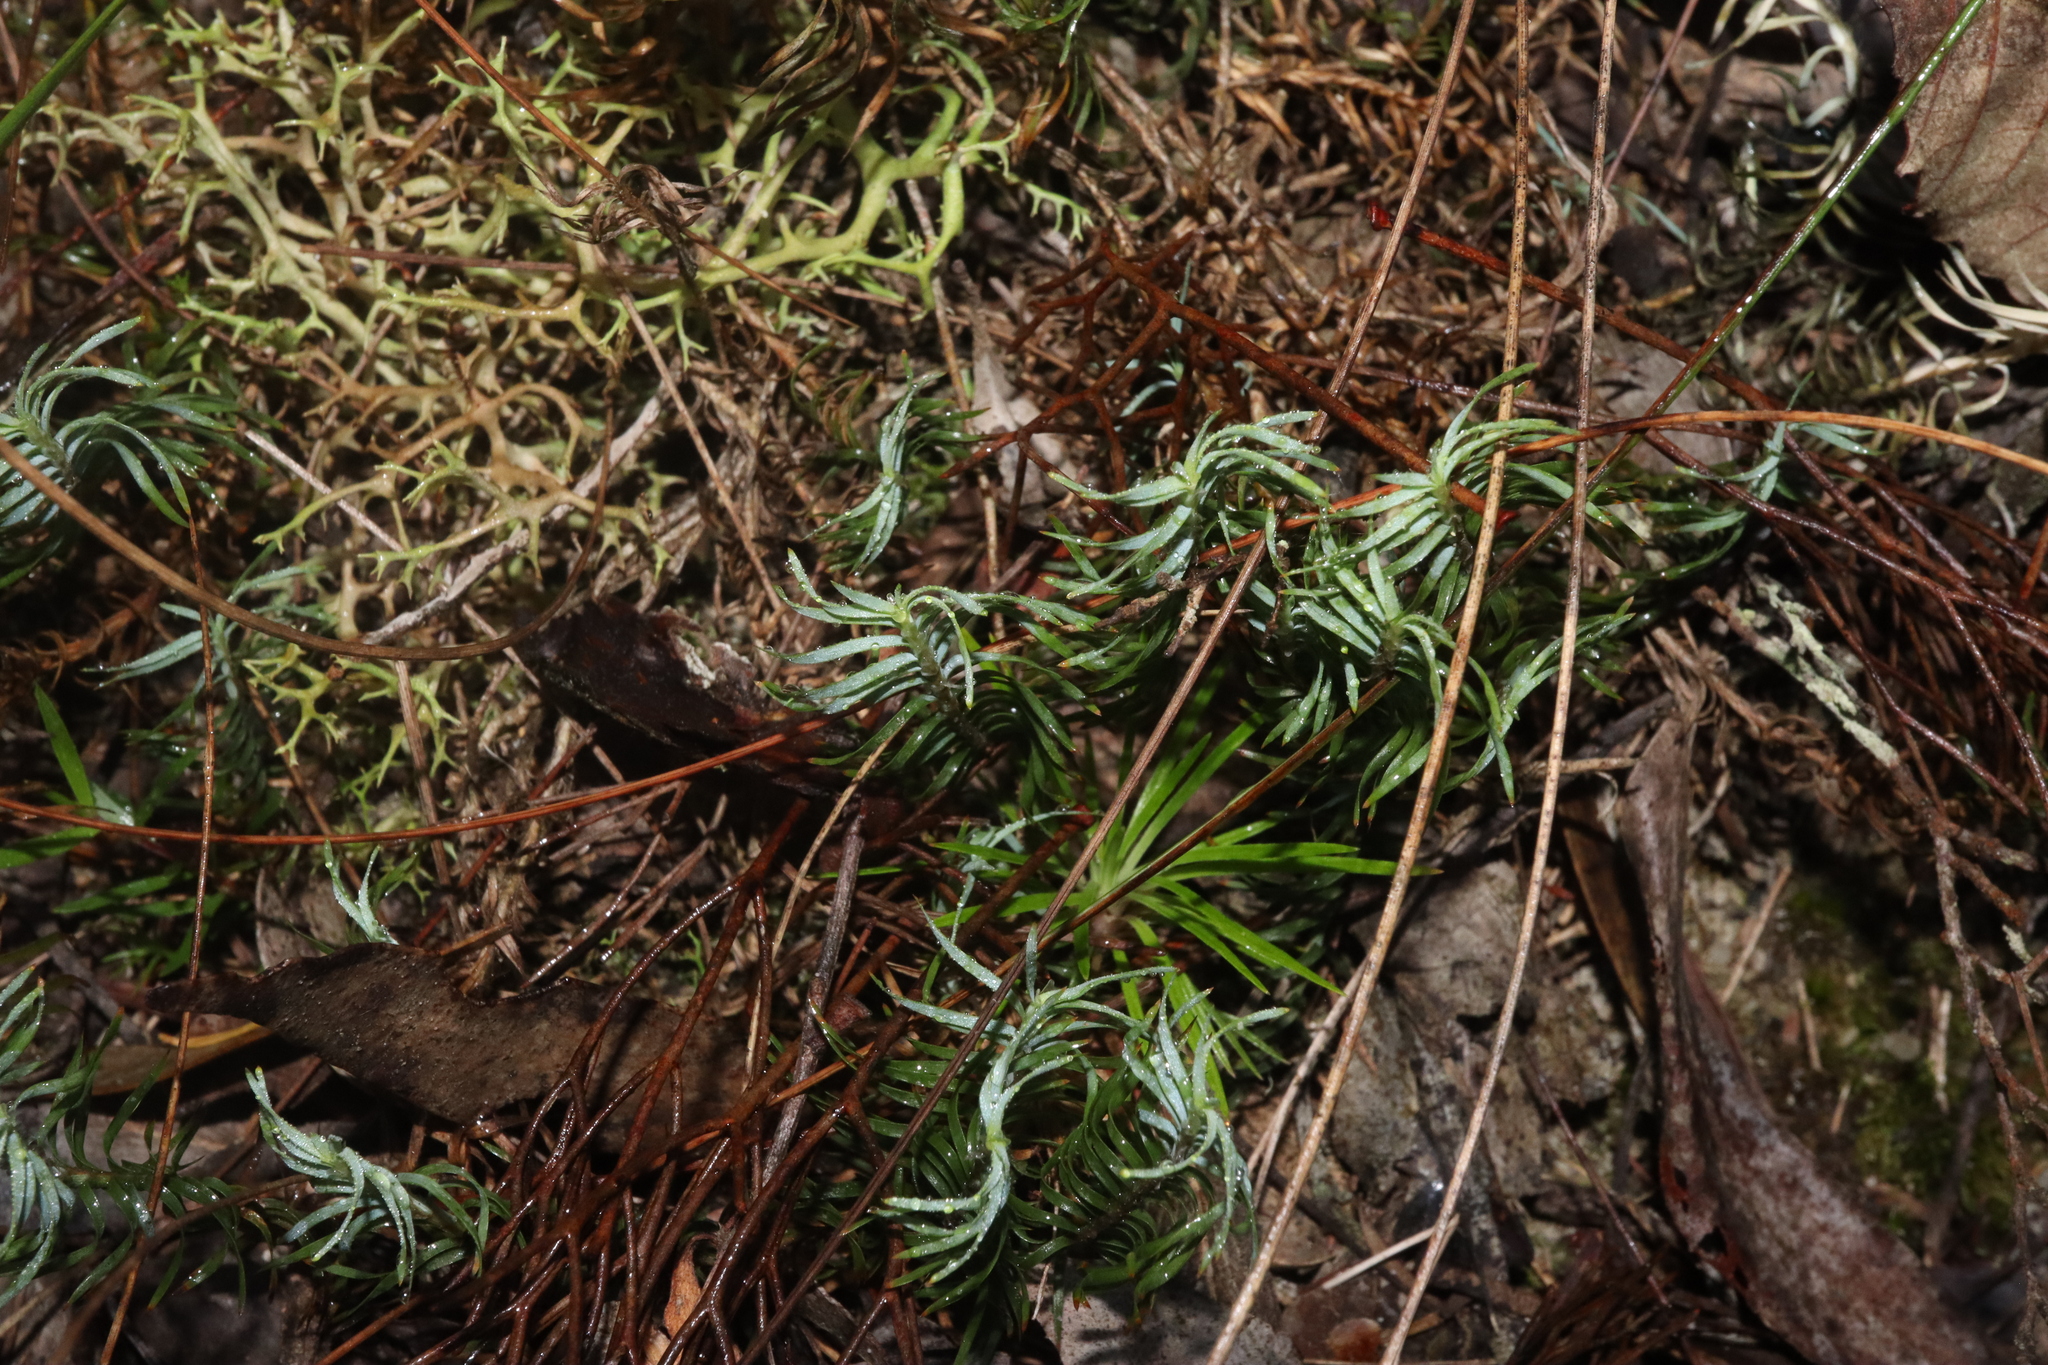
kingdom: Plantae
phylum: Tracheophyta
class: Liliopsida
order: Asparagales
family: Asparagaceae
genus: Lomandra
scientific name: Lomandra obliqua
